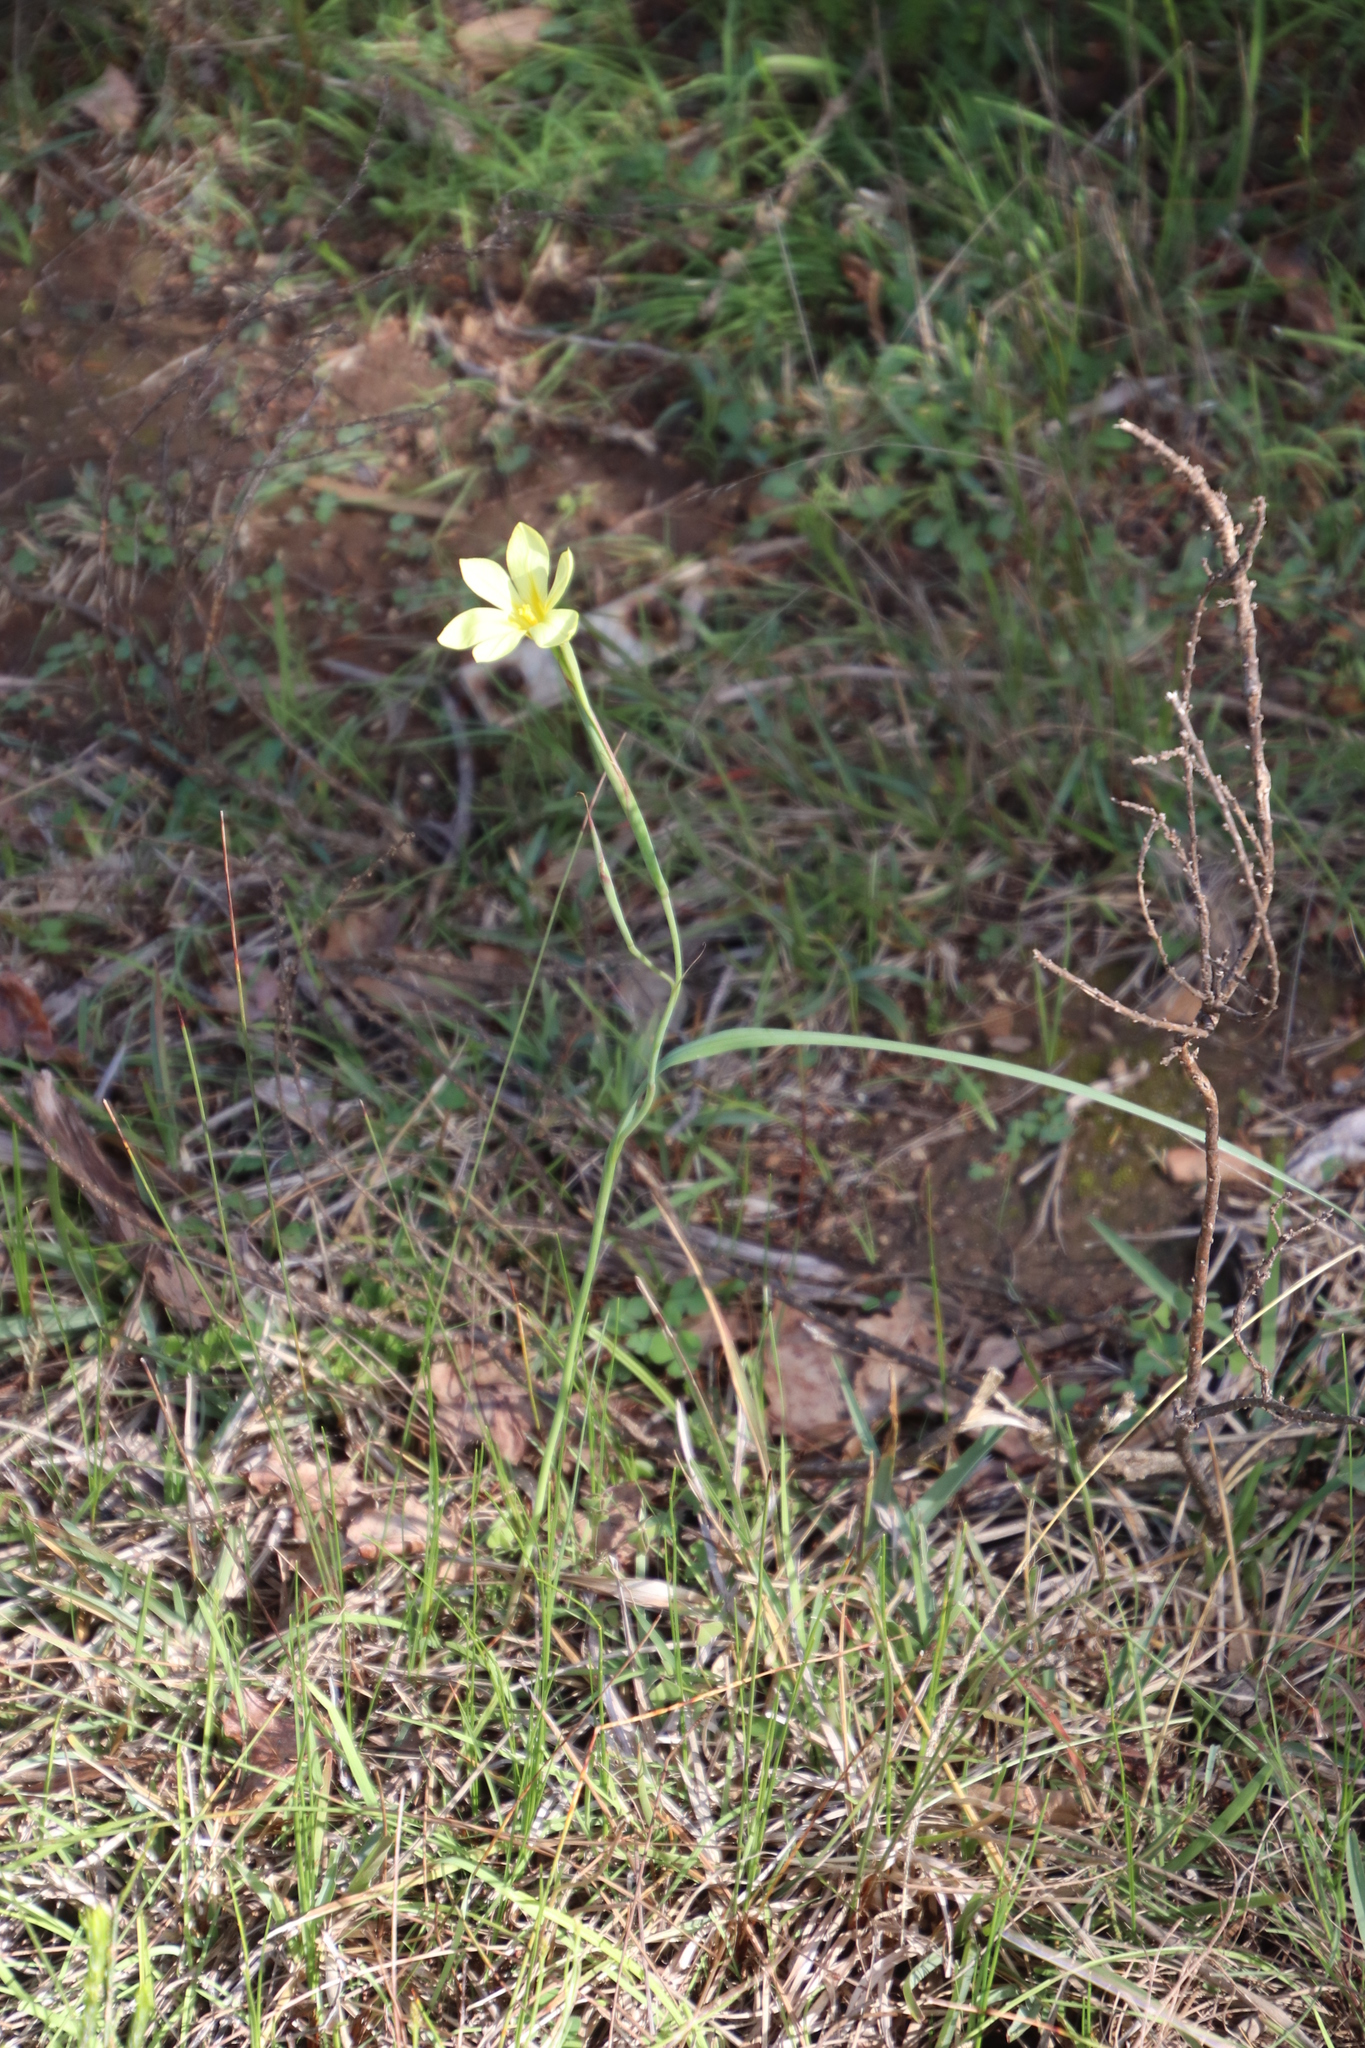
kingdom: Plantae
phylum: Tracheophyta
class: Liliopsida
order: Asparagales
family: Iridaceae
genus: Moraea
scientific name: Moraea collina
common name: Cape-tulip
